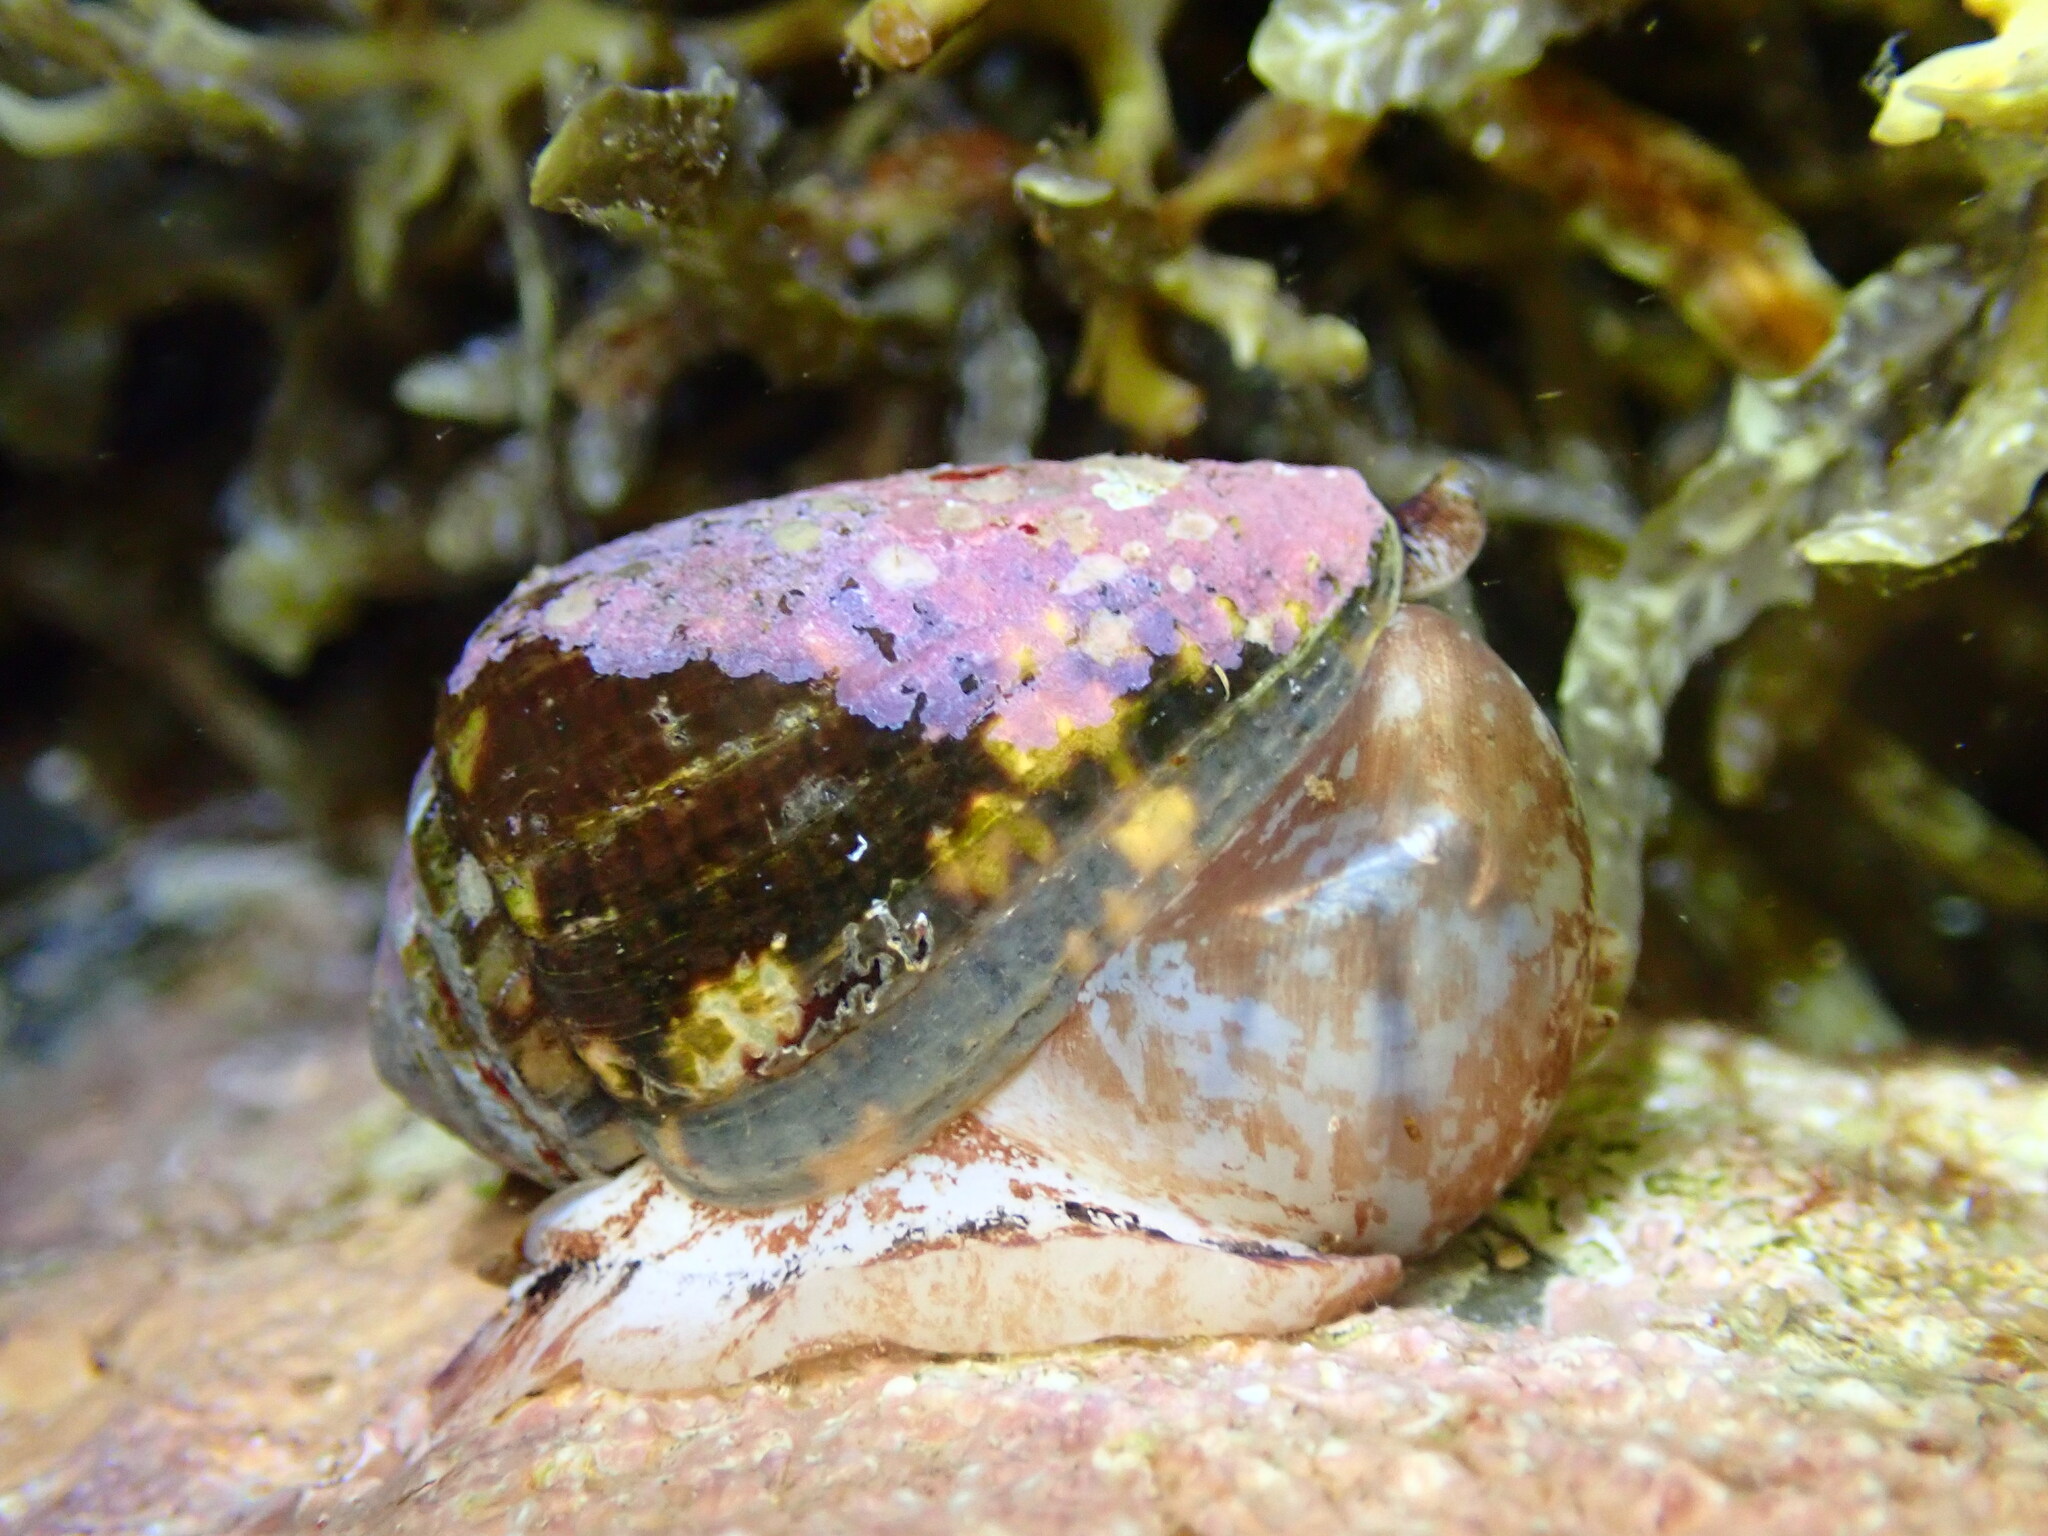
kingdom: Animalia
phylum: Mollusca
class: Gastropoda
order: Neogastropoda
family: Conidae
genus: Conus
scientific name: Conus catus
